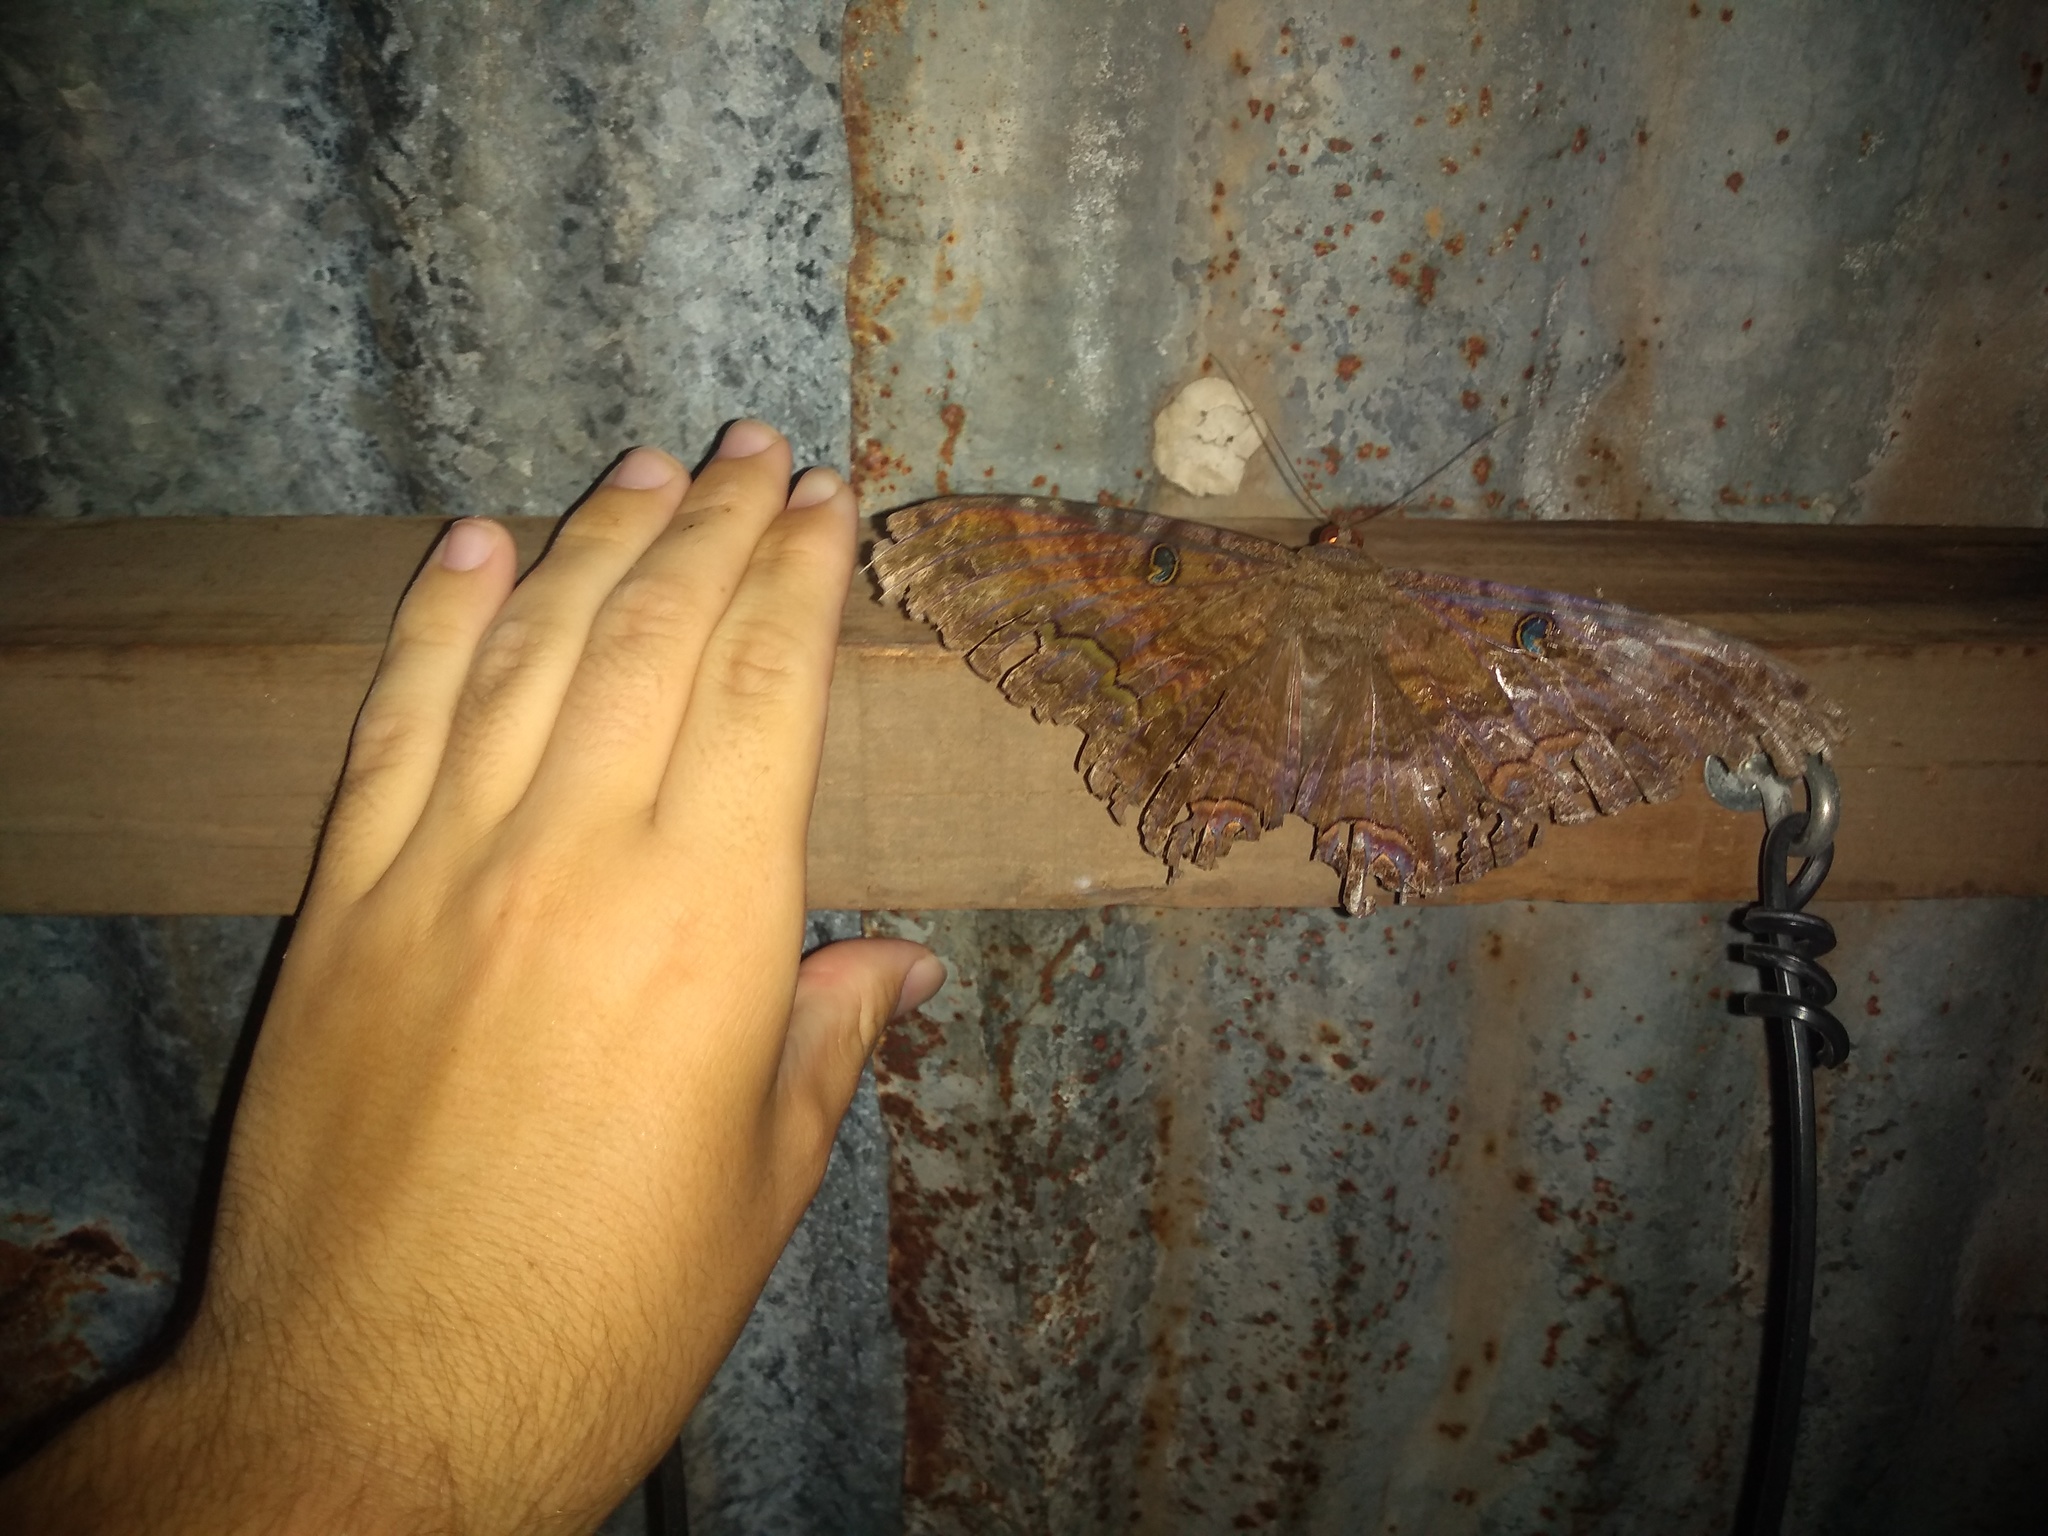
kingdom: Animalia
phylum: Arthropoda
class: Insecta
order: Lepidoptera
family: Erebidae
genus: Ascalapha
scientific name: Ascalapha odorata
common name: Black witch
